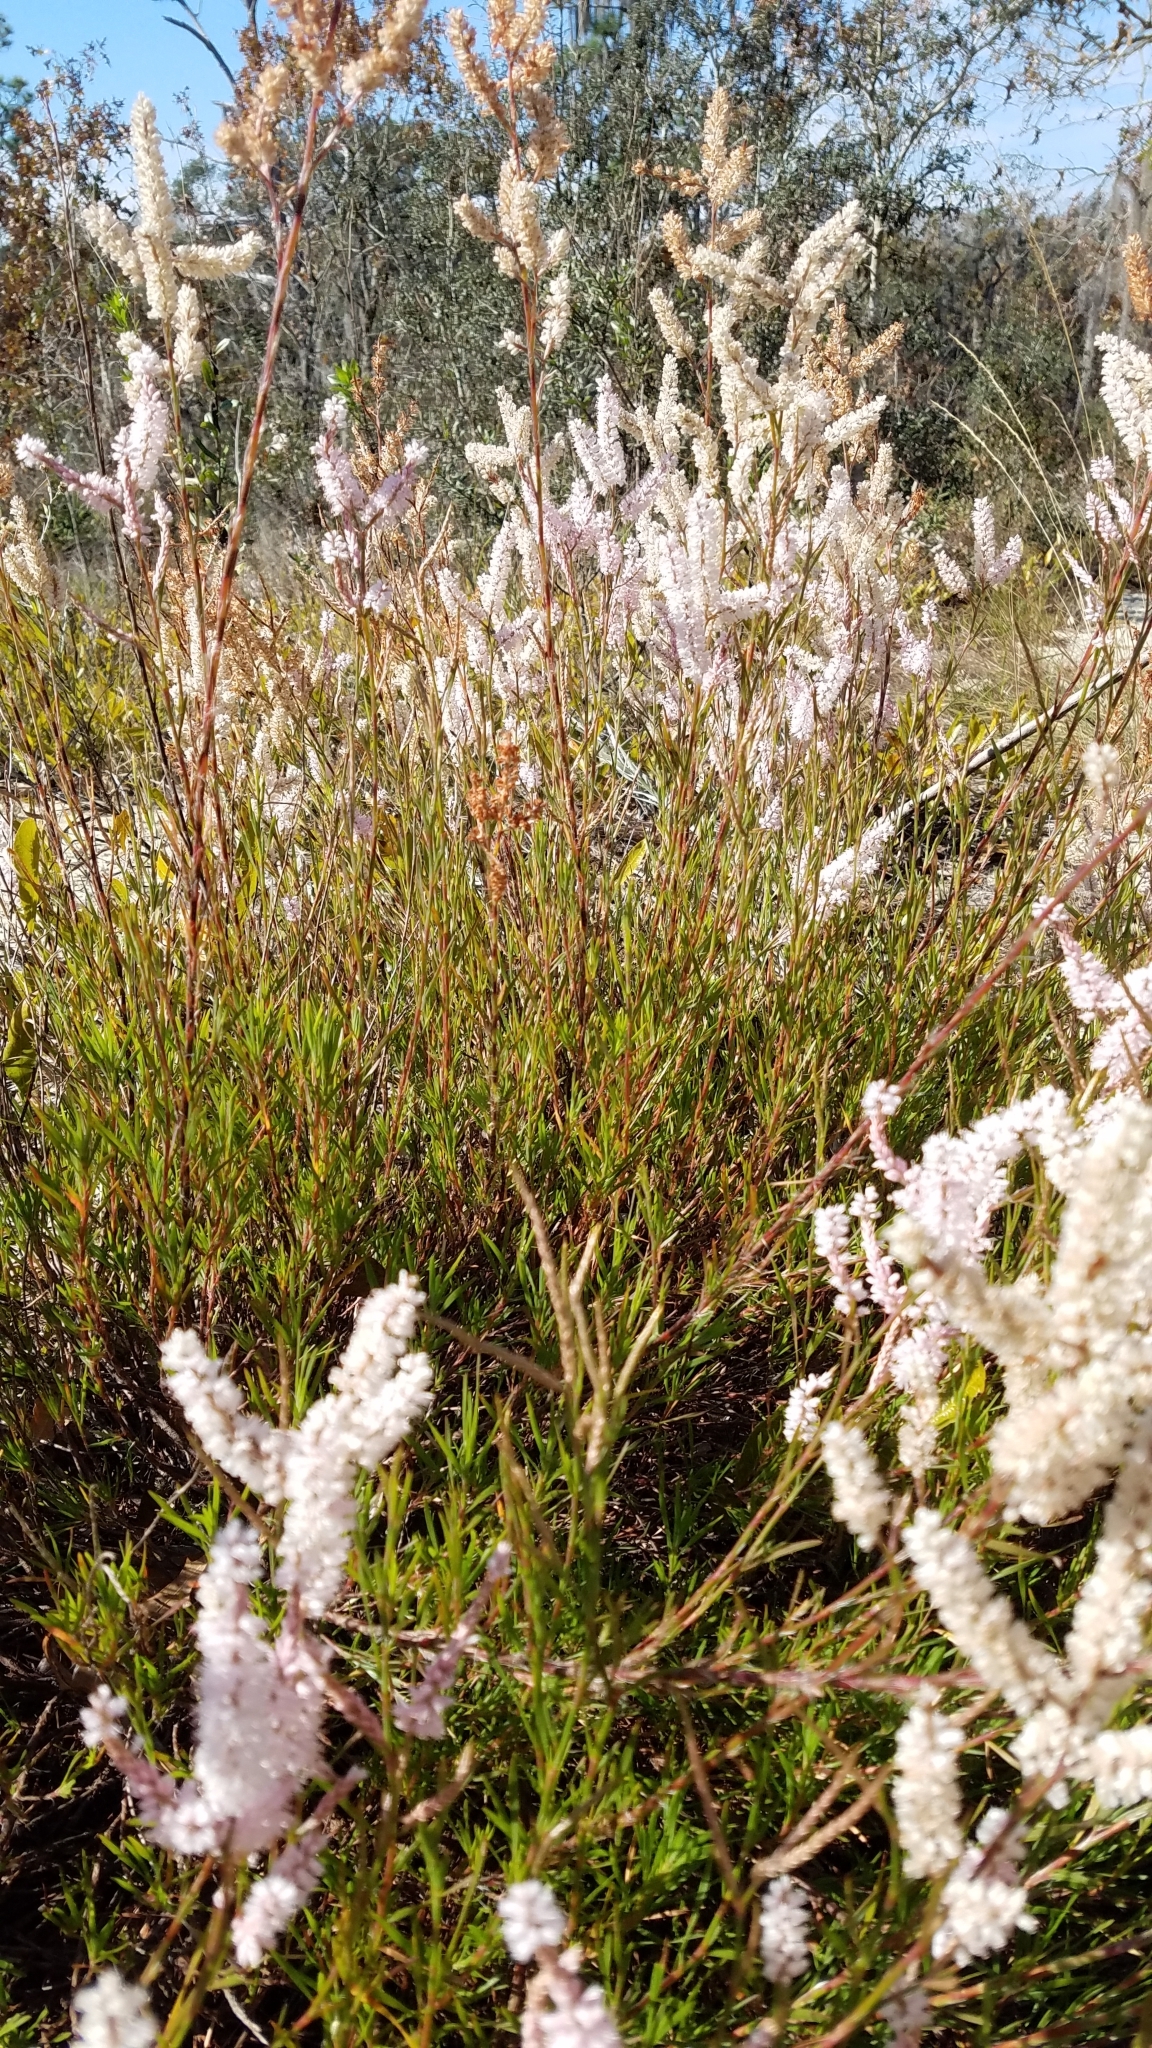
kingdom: Plantae
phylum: Tracheophyta
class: Magnoliopsida
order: Caryophyllales
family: Polygonaceae
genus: Polygonella
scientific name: Polygonella robusta
